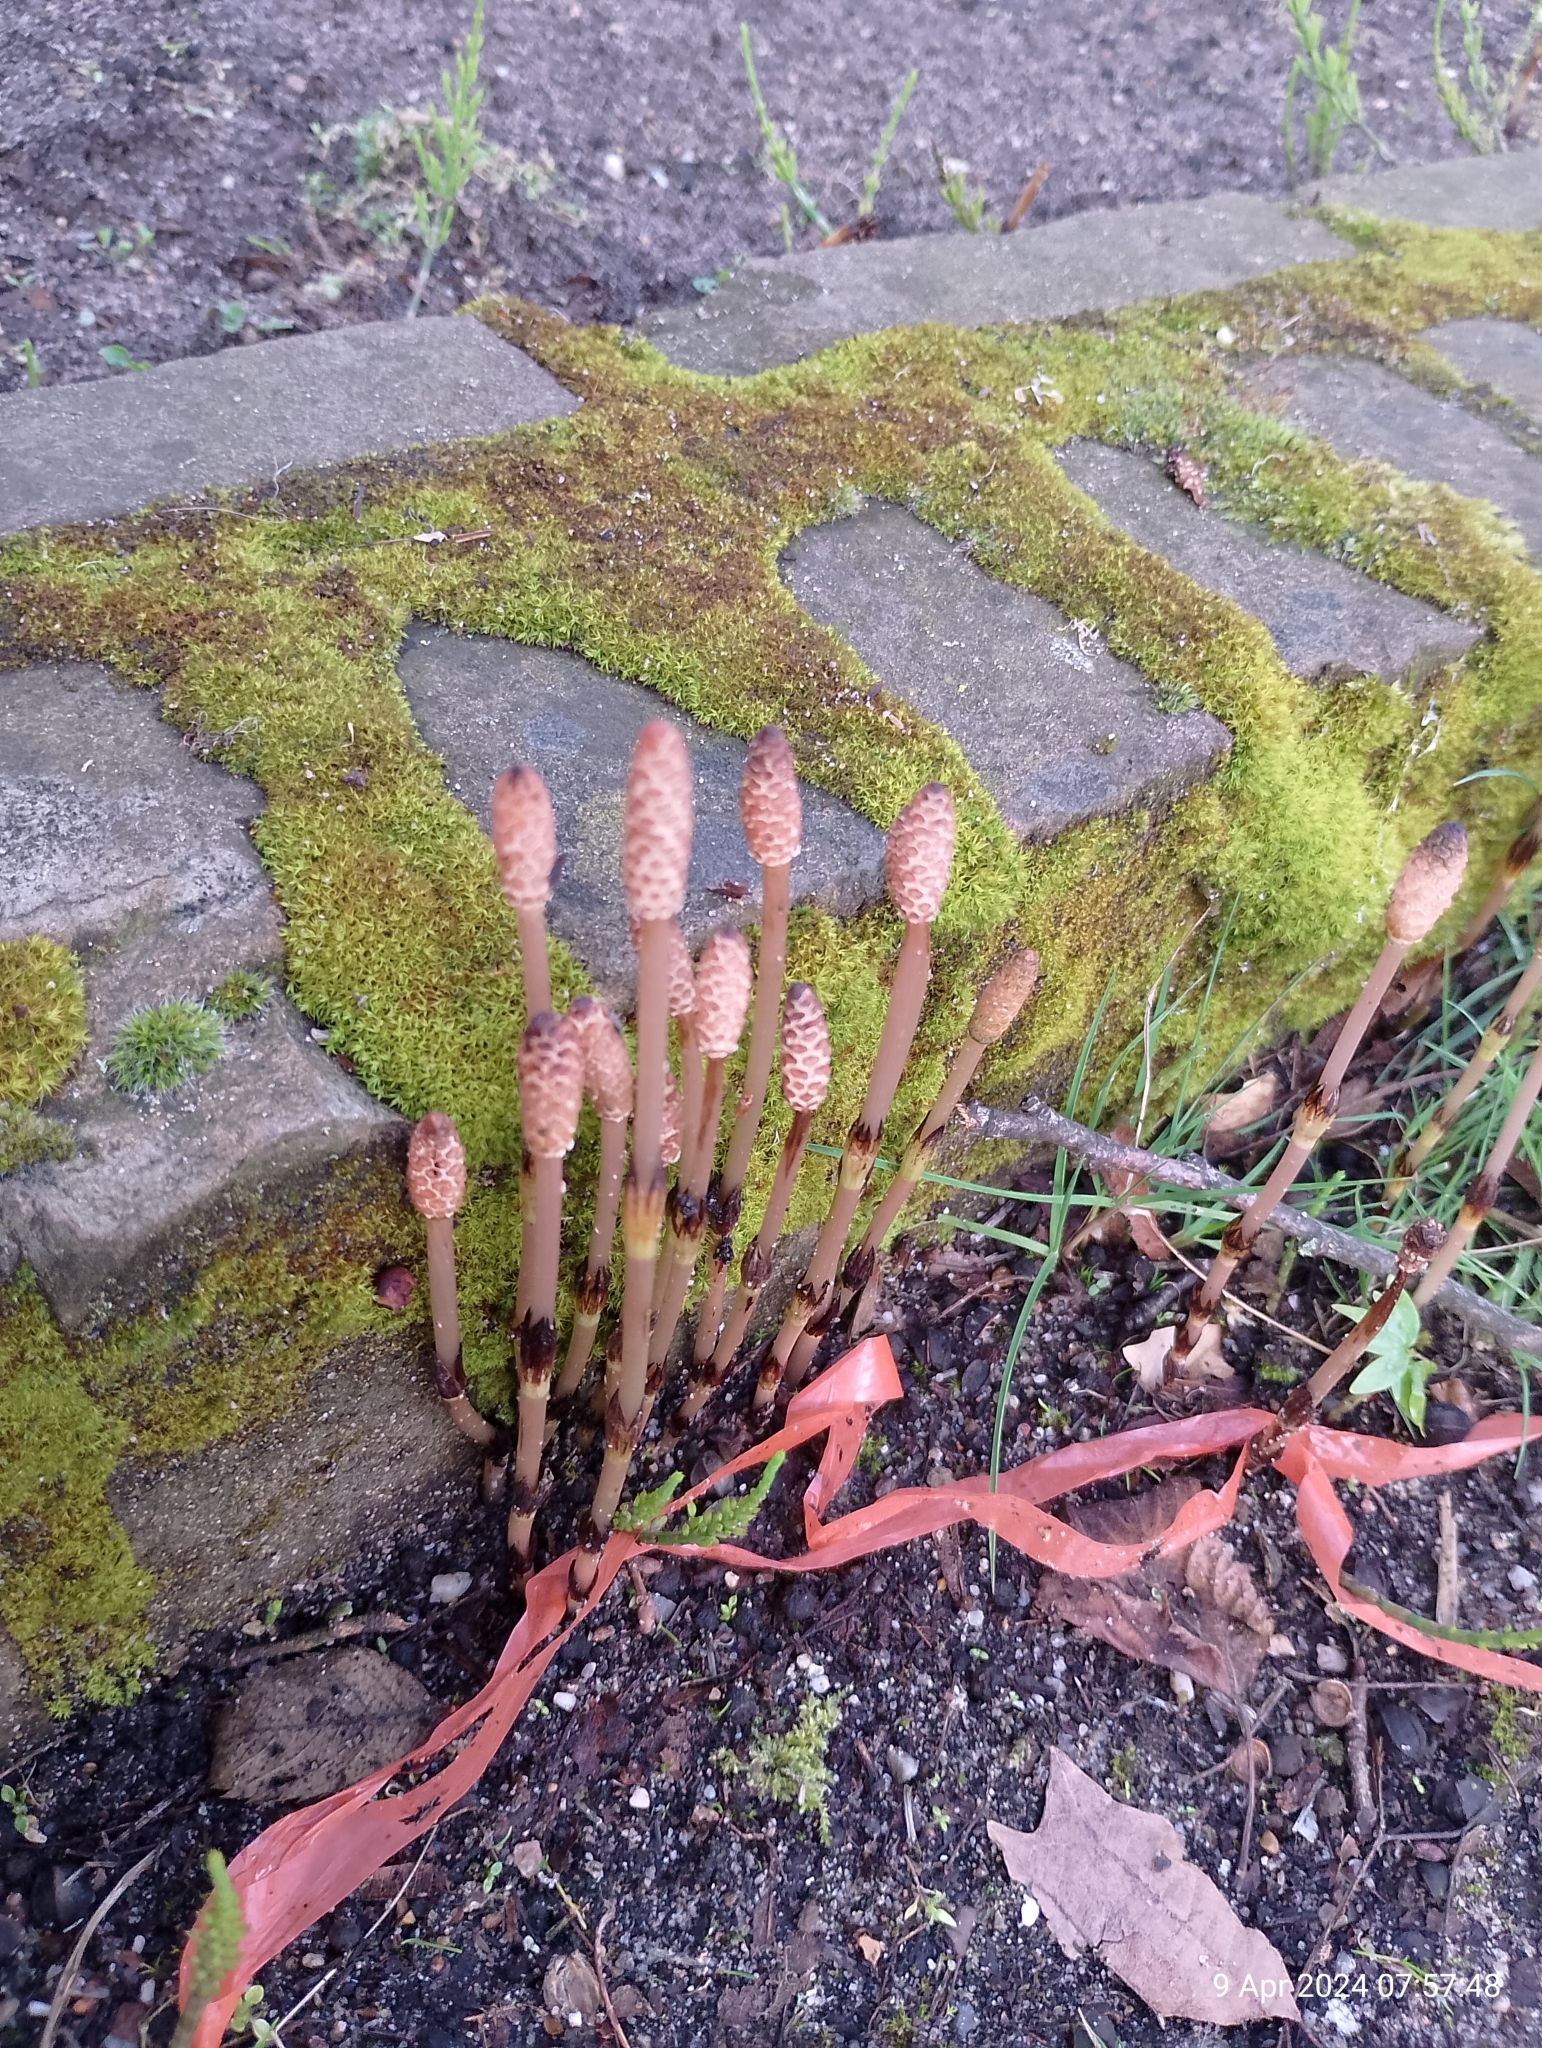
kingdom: Plantae
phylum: Tracheophyta
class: Polypodiopsida
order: Equisetales
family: Equisetaceae
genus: Equisetum
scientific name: Equisetum arvense
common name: Field horsetail
